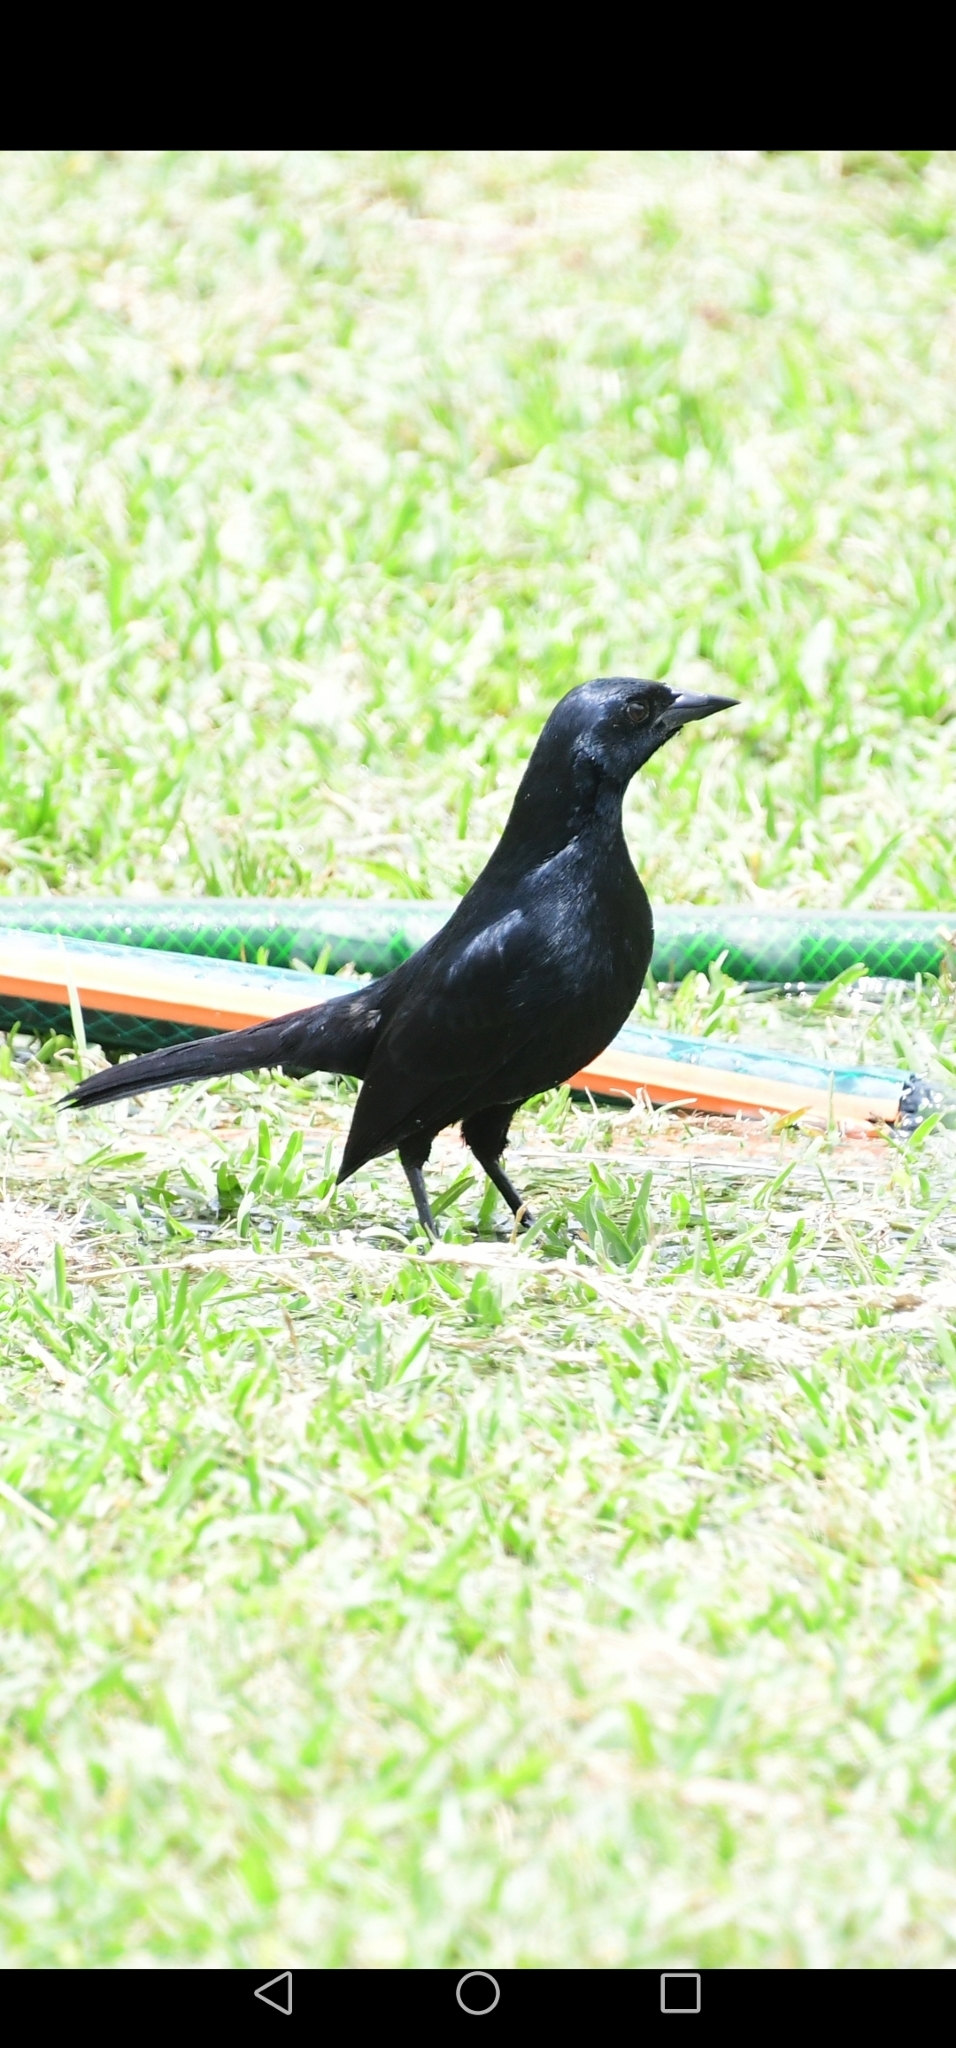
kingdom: Animalia
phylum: Chordata
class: Aves
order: Passeriformes
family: Icteridae
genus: Dives
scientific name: Dives warczewiczi
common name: Scrub blackbird
